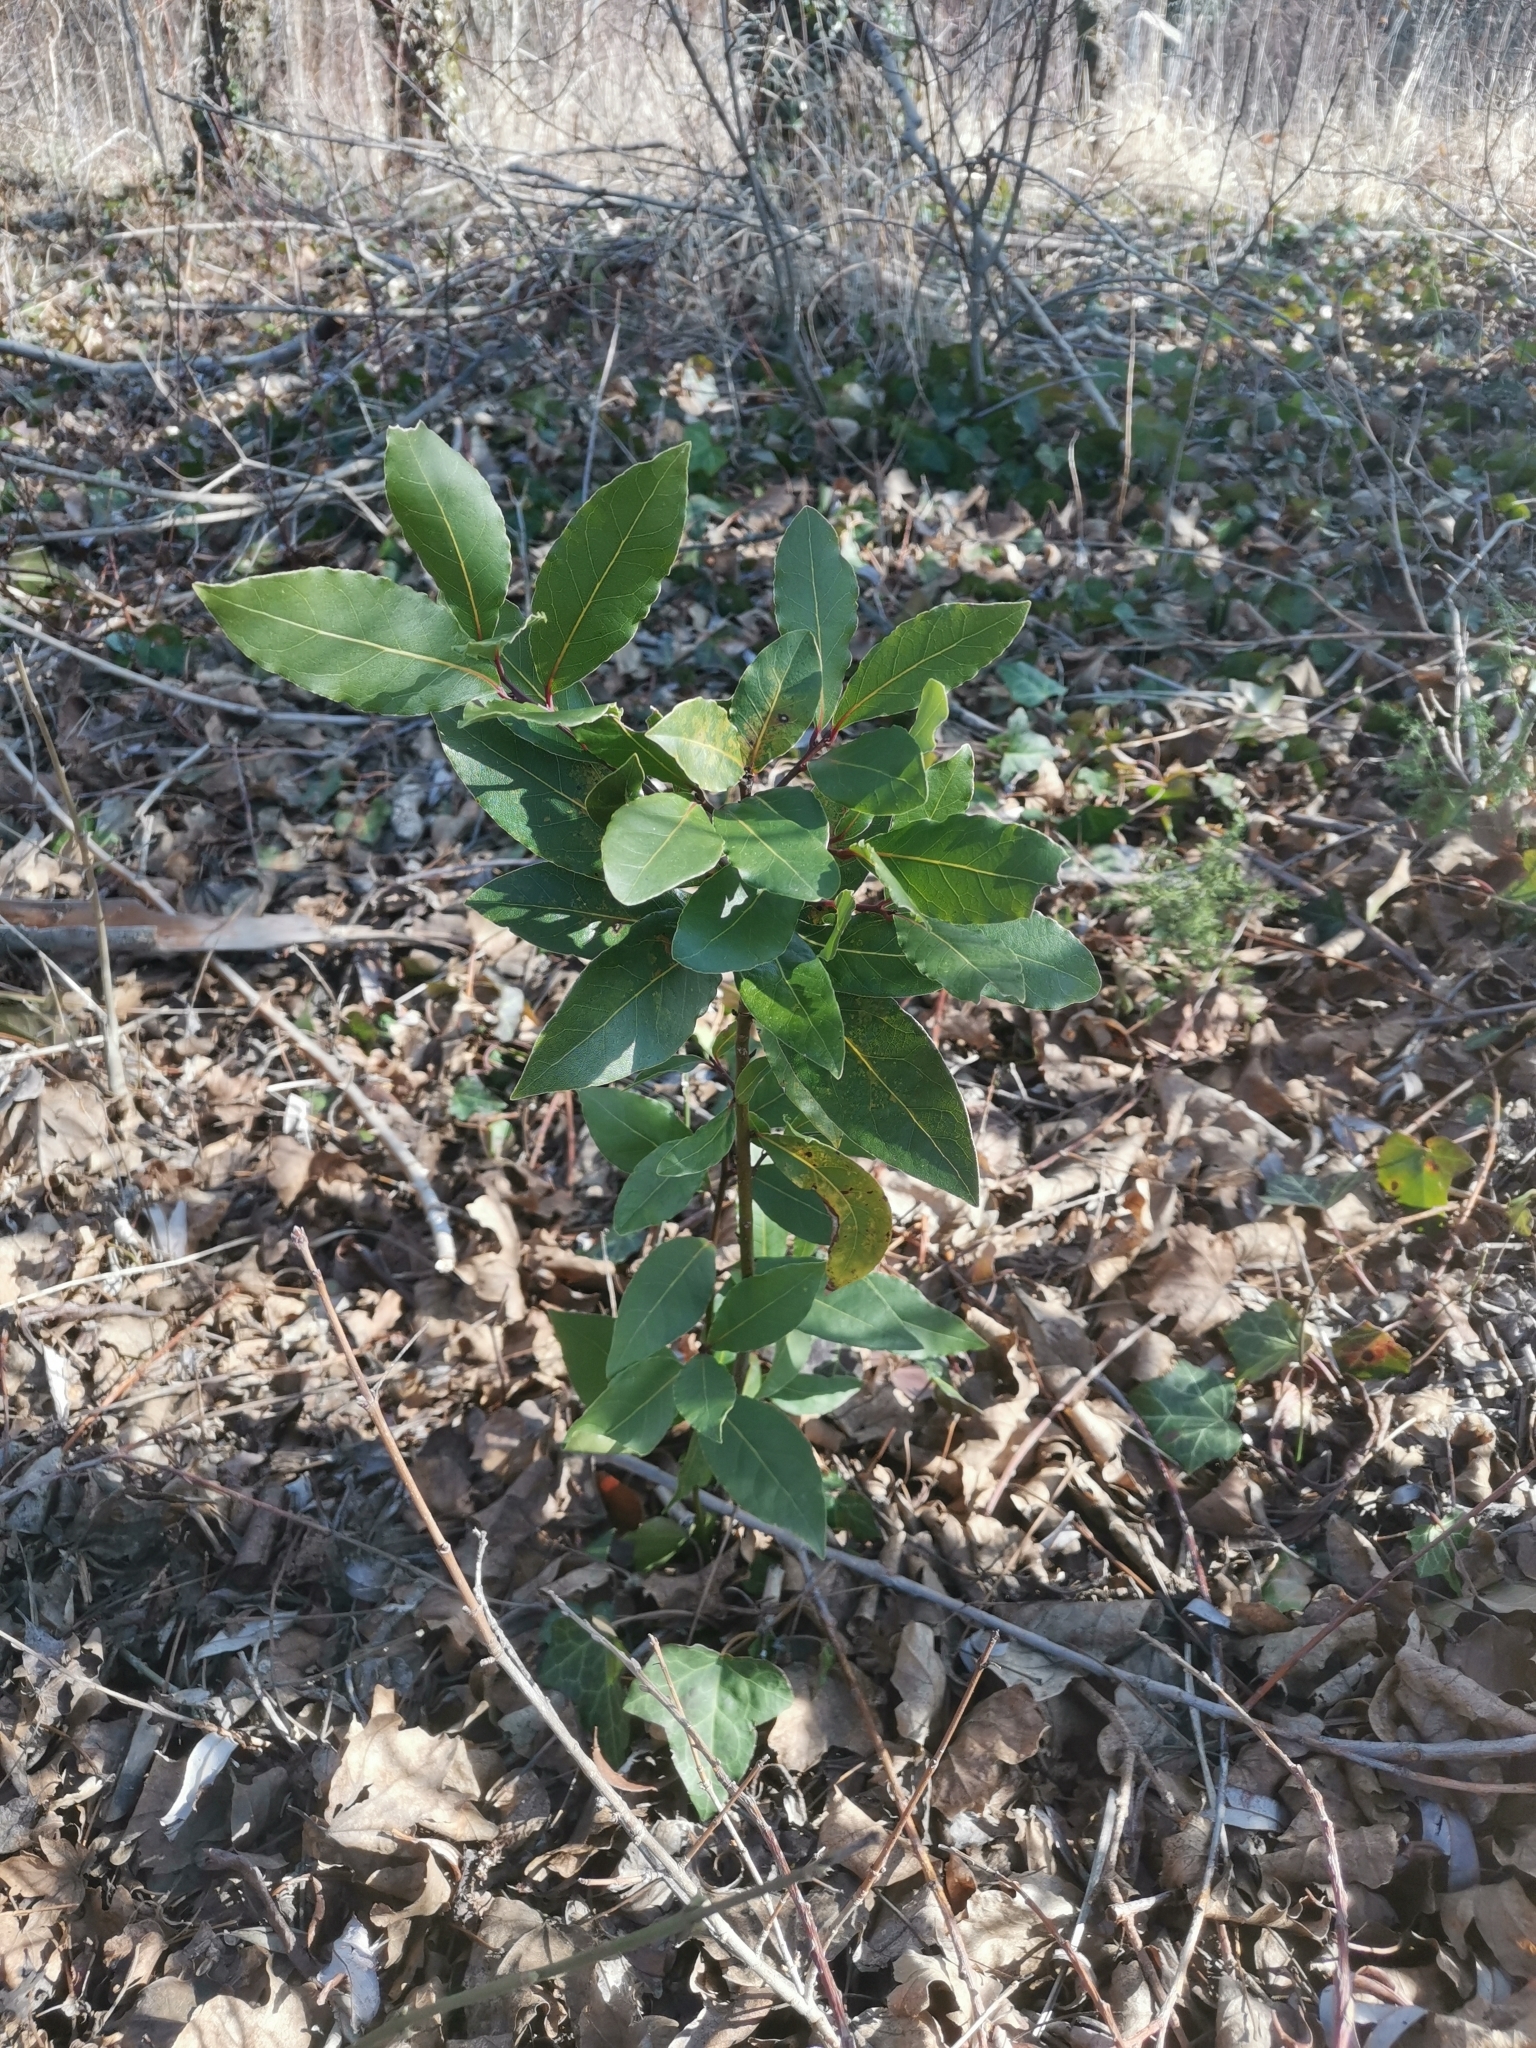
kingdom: Plantae
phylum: Tracheophyta
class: Magnoliopsida
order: Laurales
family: Lauraceae
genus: Laurus
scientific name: Laurus nobilis
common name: Bay
